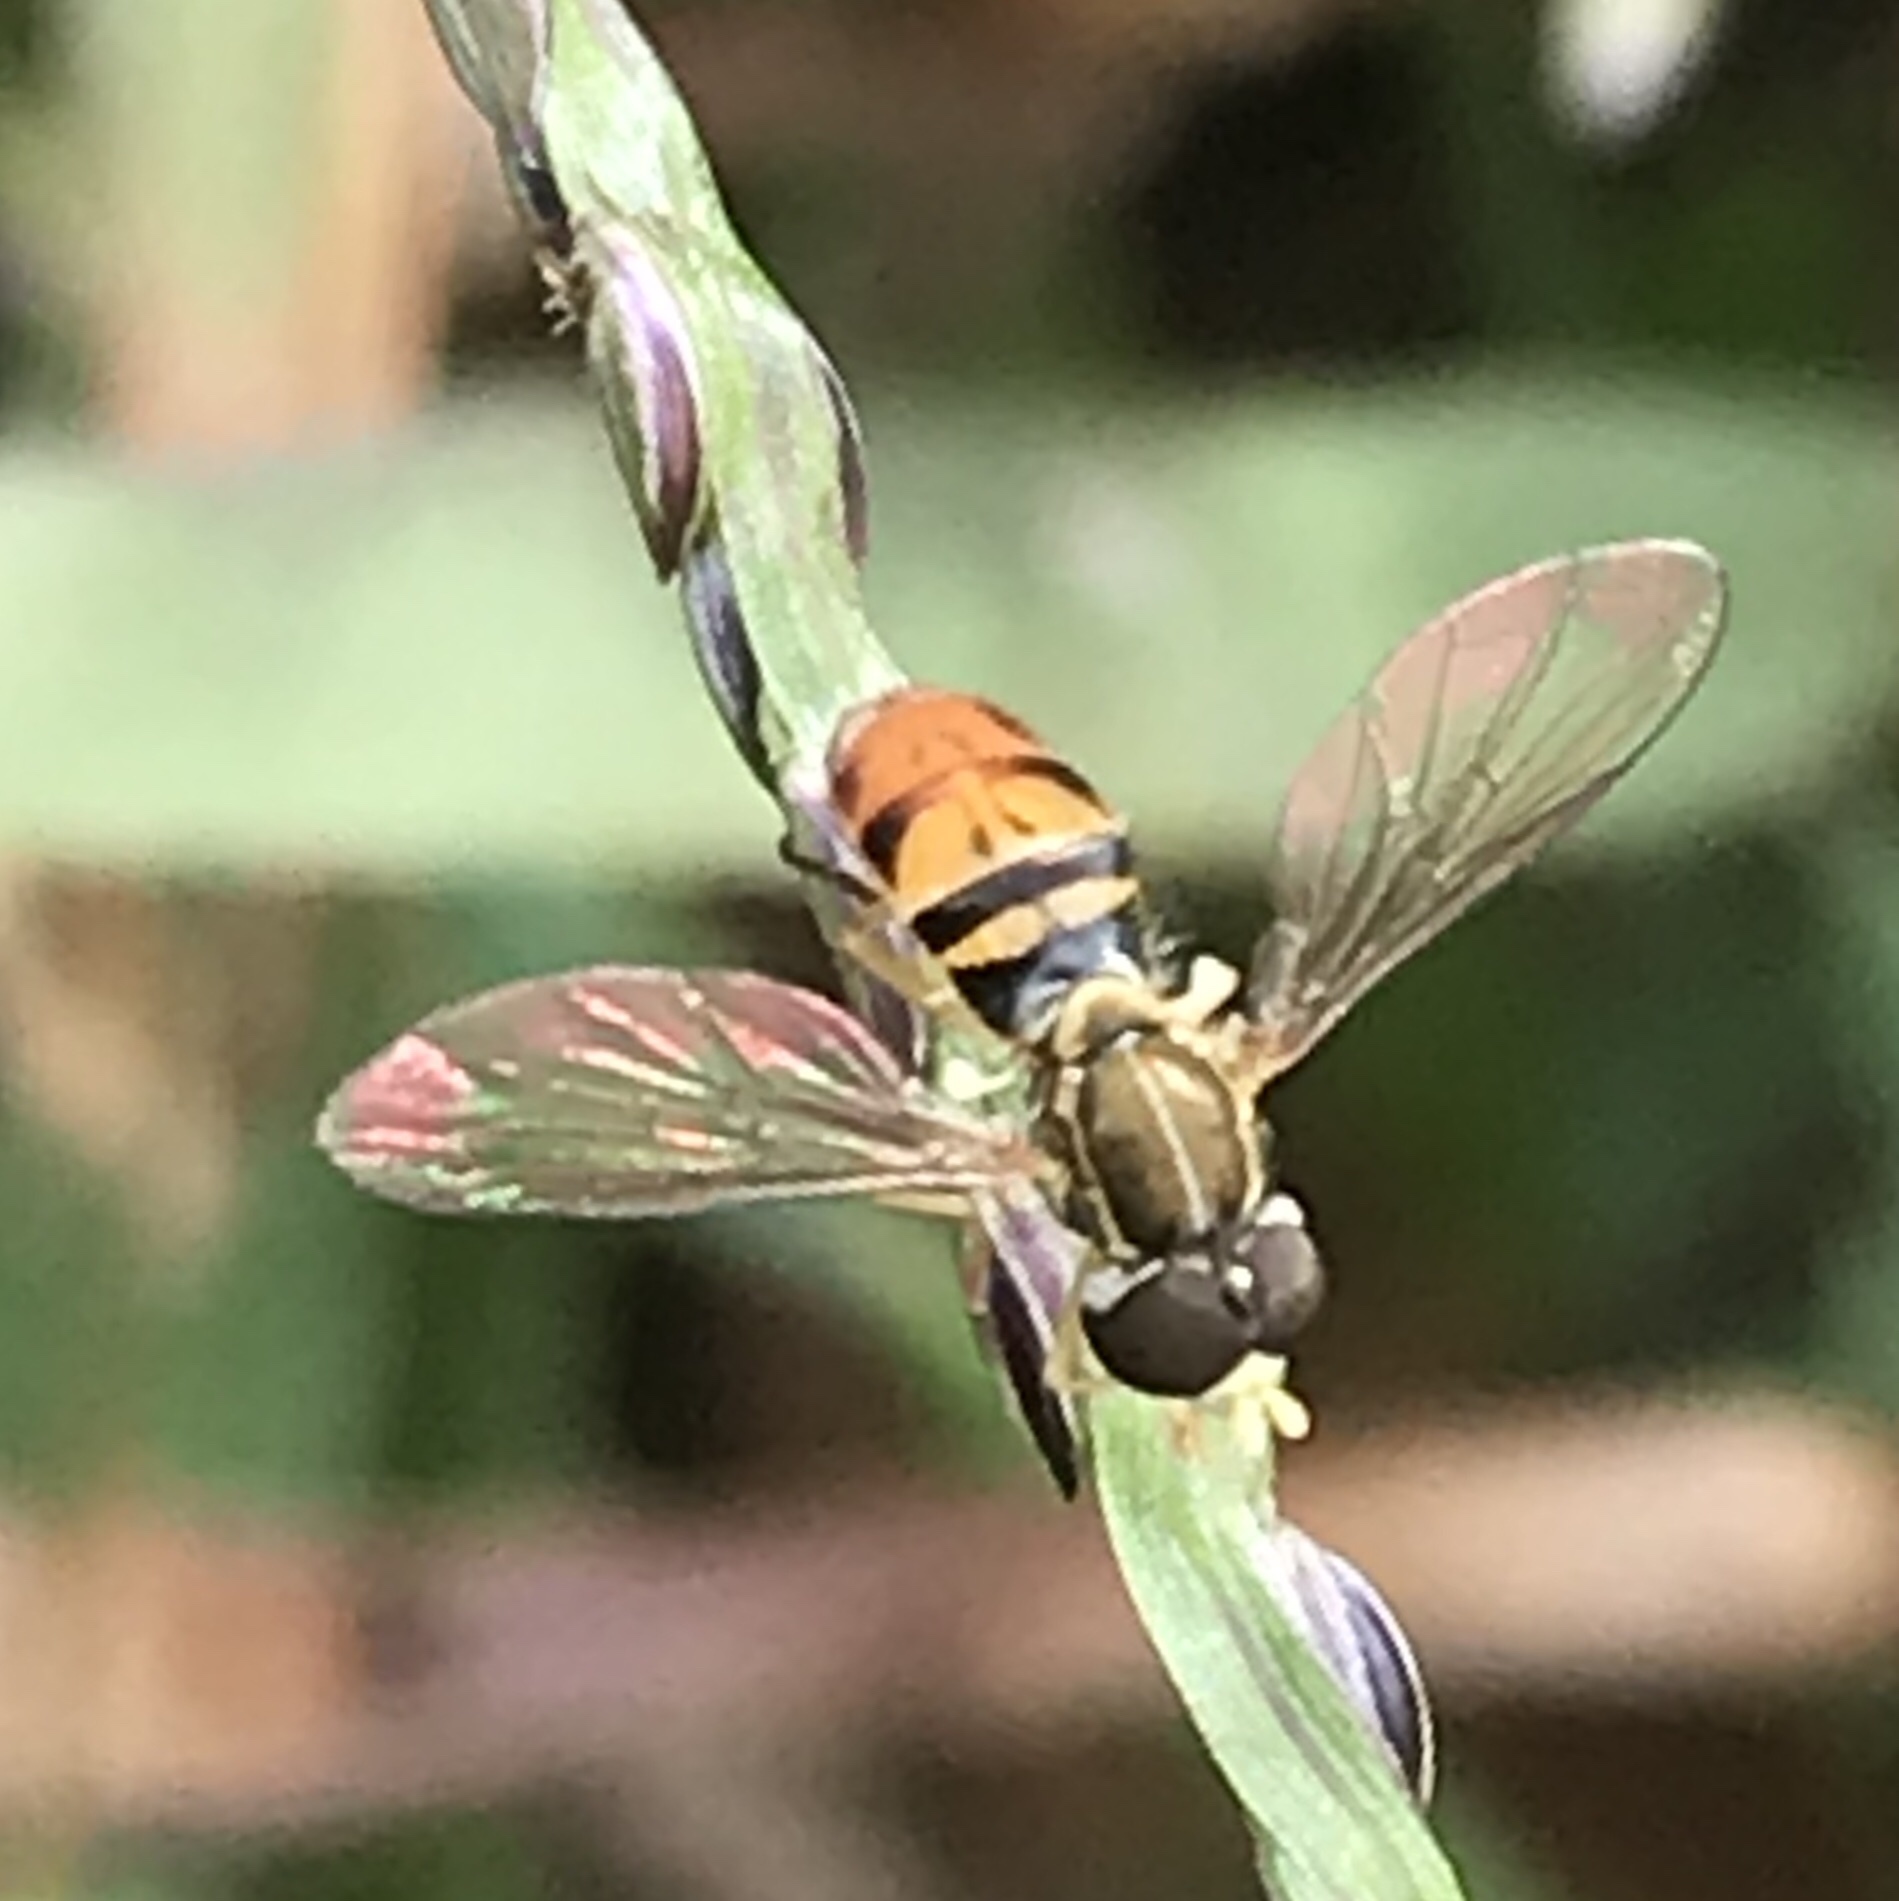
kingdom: Animalia
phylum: Arthropoda
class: Insecta
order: Diptera
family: Syrphidae
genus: Toxomerus
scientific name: Toxomerus marginatus
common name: Syrphid fly
